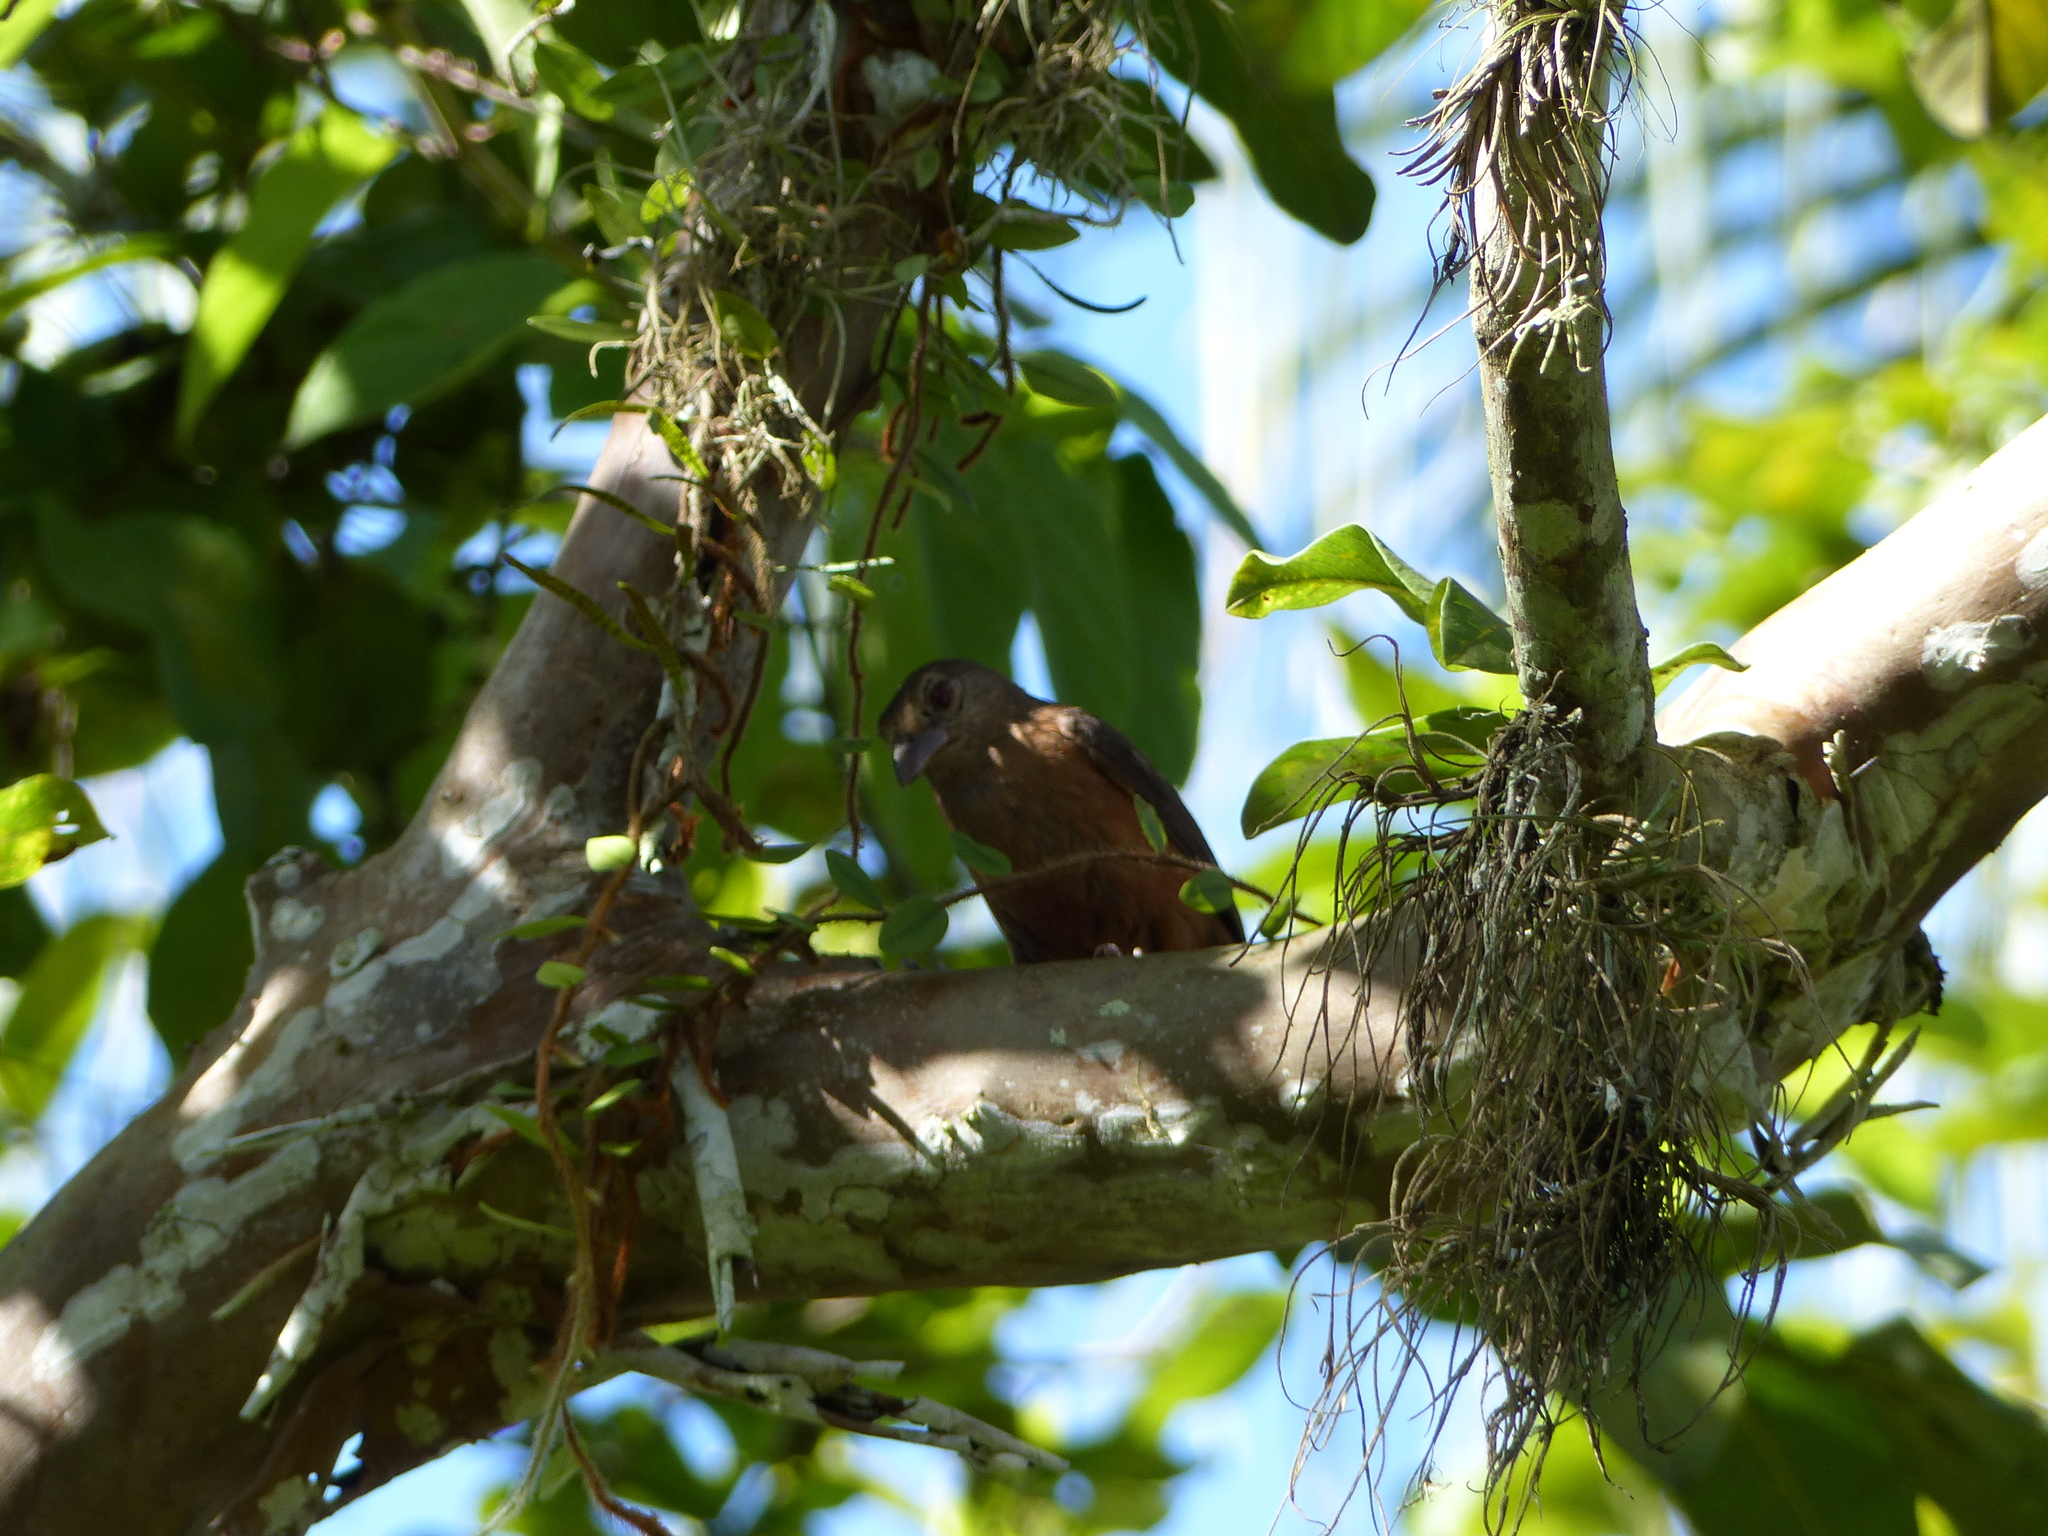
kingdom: Animalia
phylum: Chordata
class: Aves
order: Passeriformes
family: Thraupidae
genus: Ramphocelus
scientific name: Ramphocelus bresilia
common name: Brazilian tanager
